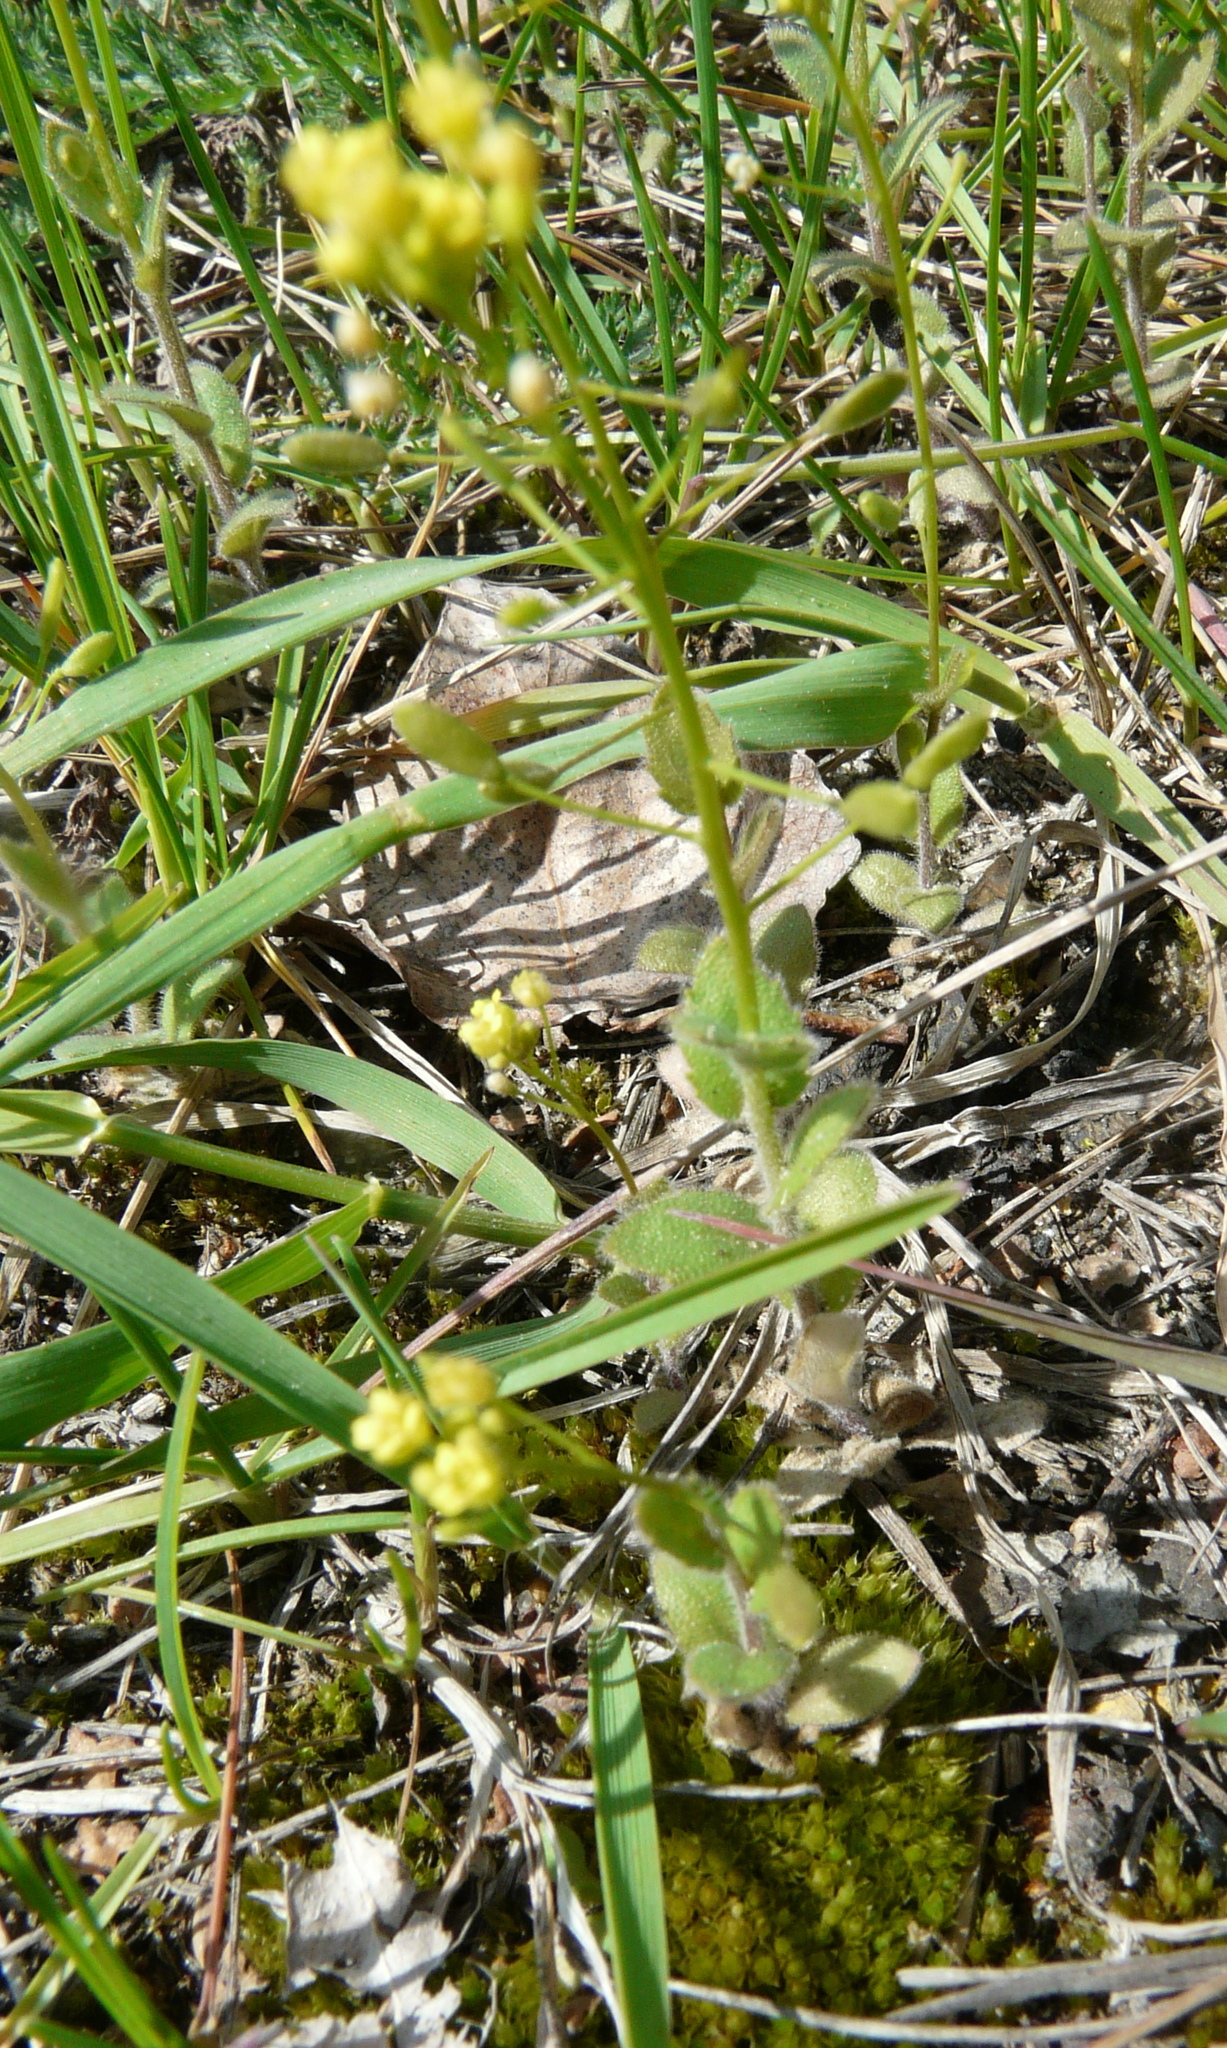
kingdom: Plantae
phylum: Tracheophyta
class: Magnoliopsida
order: Brassicales
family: Brassicaceae
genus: Draba
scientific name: Draba nemorosa
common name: Wood whitlow-grass
